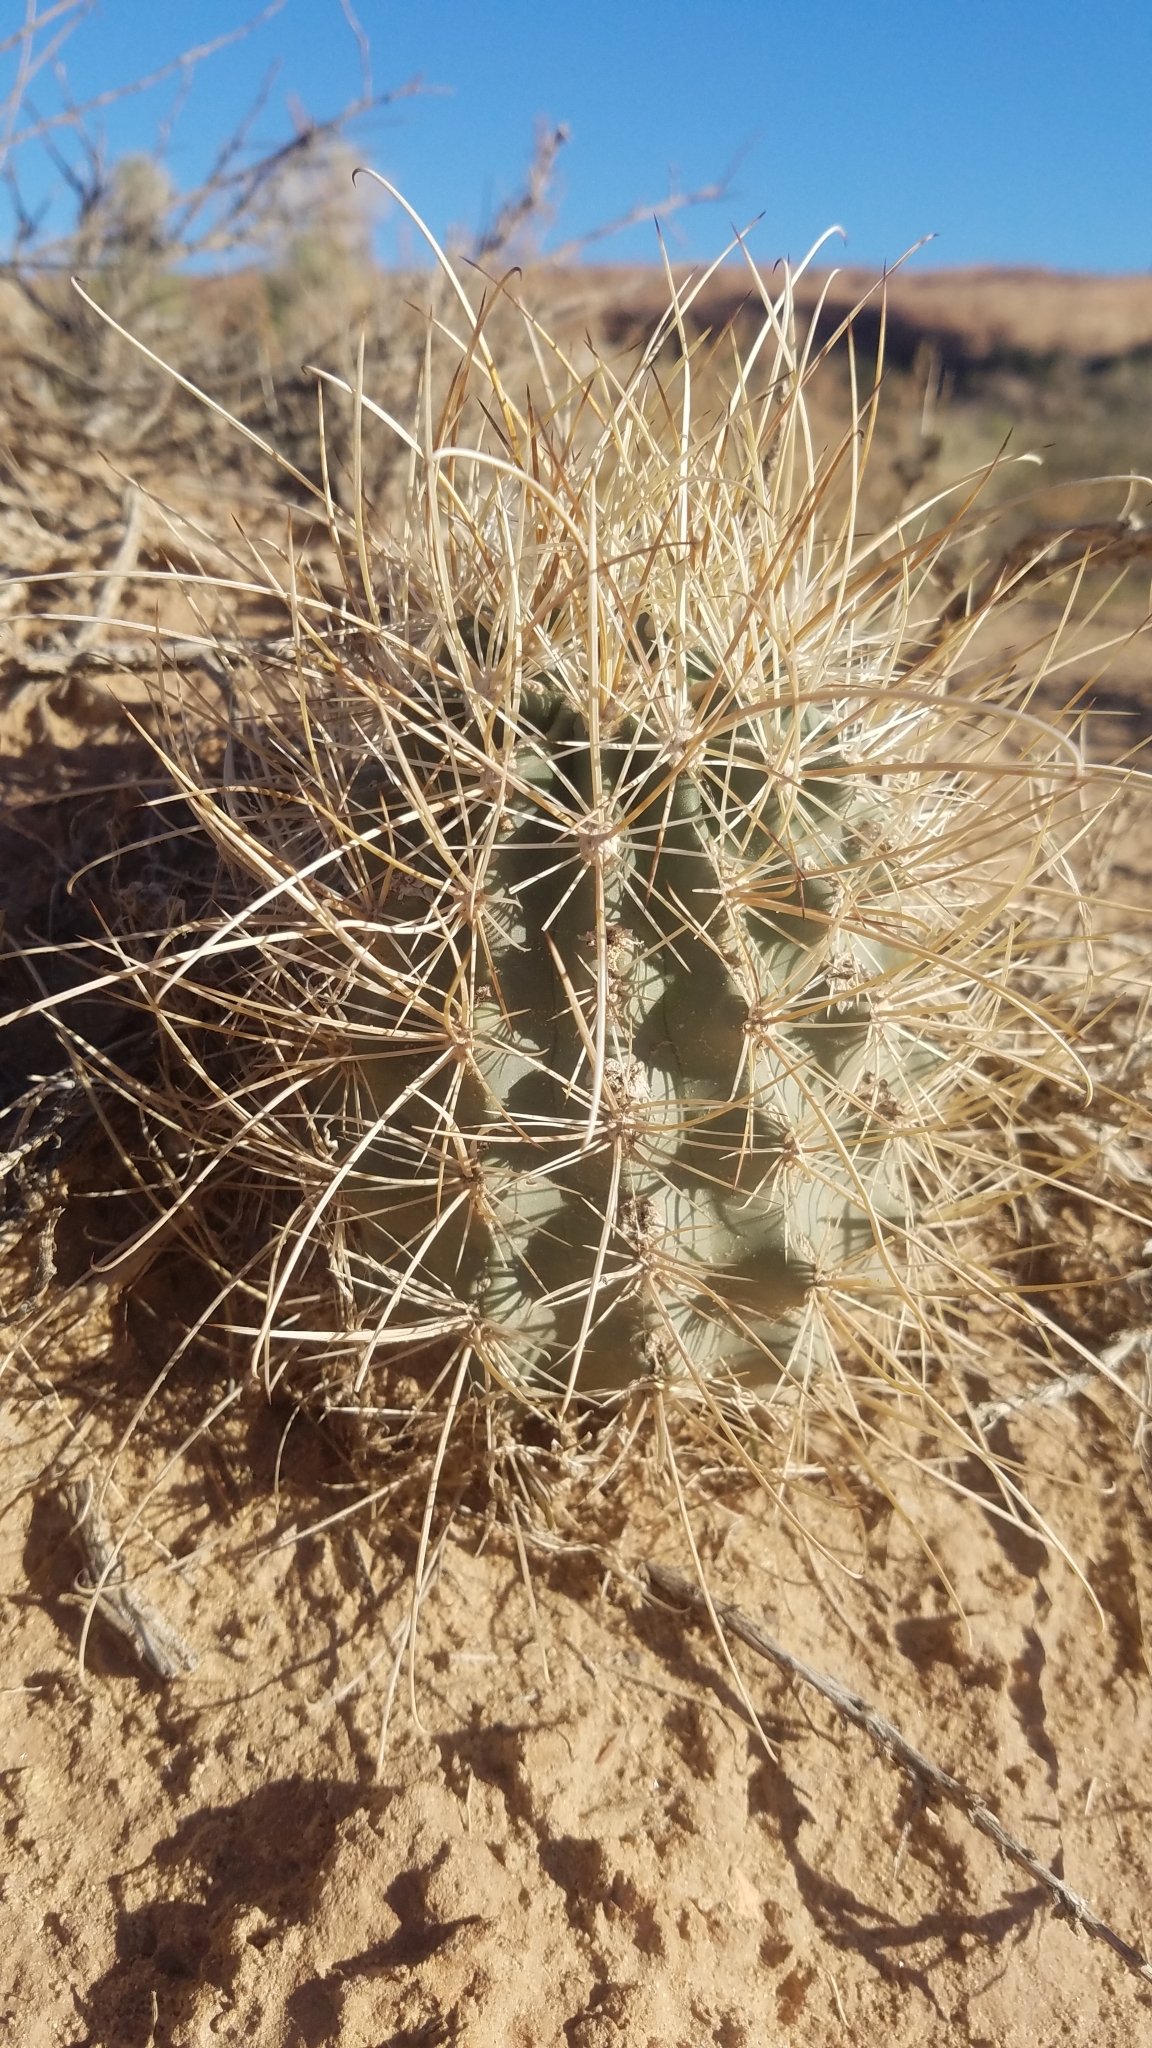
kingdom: Plantae
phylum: Tracheophyta
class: Magnoliopsida
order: Caryophyllales
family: Cactaceae
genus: Sclerocactus
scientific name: Sclerocactus parviflorus
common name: Small-flower fishhook cactus
